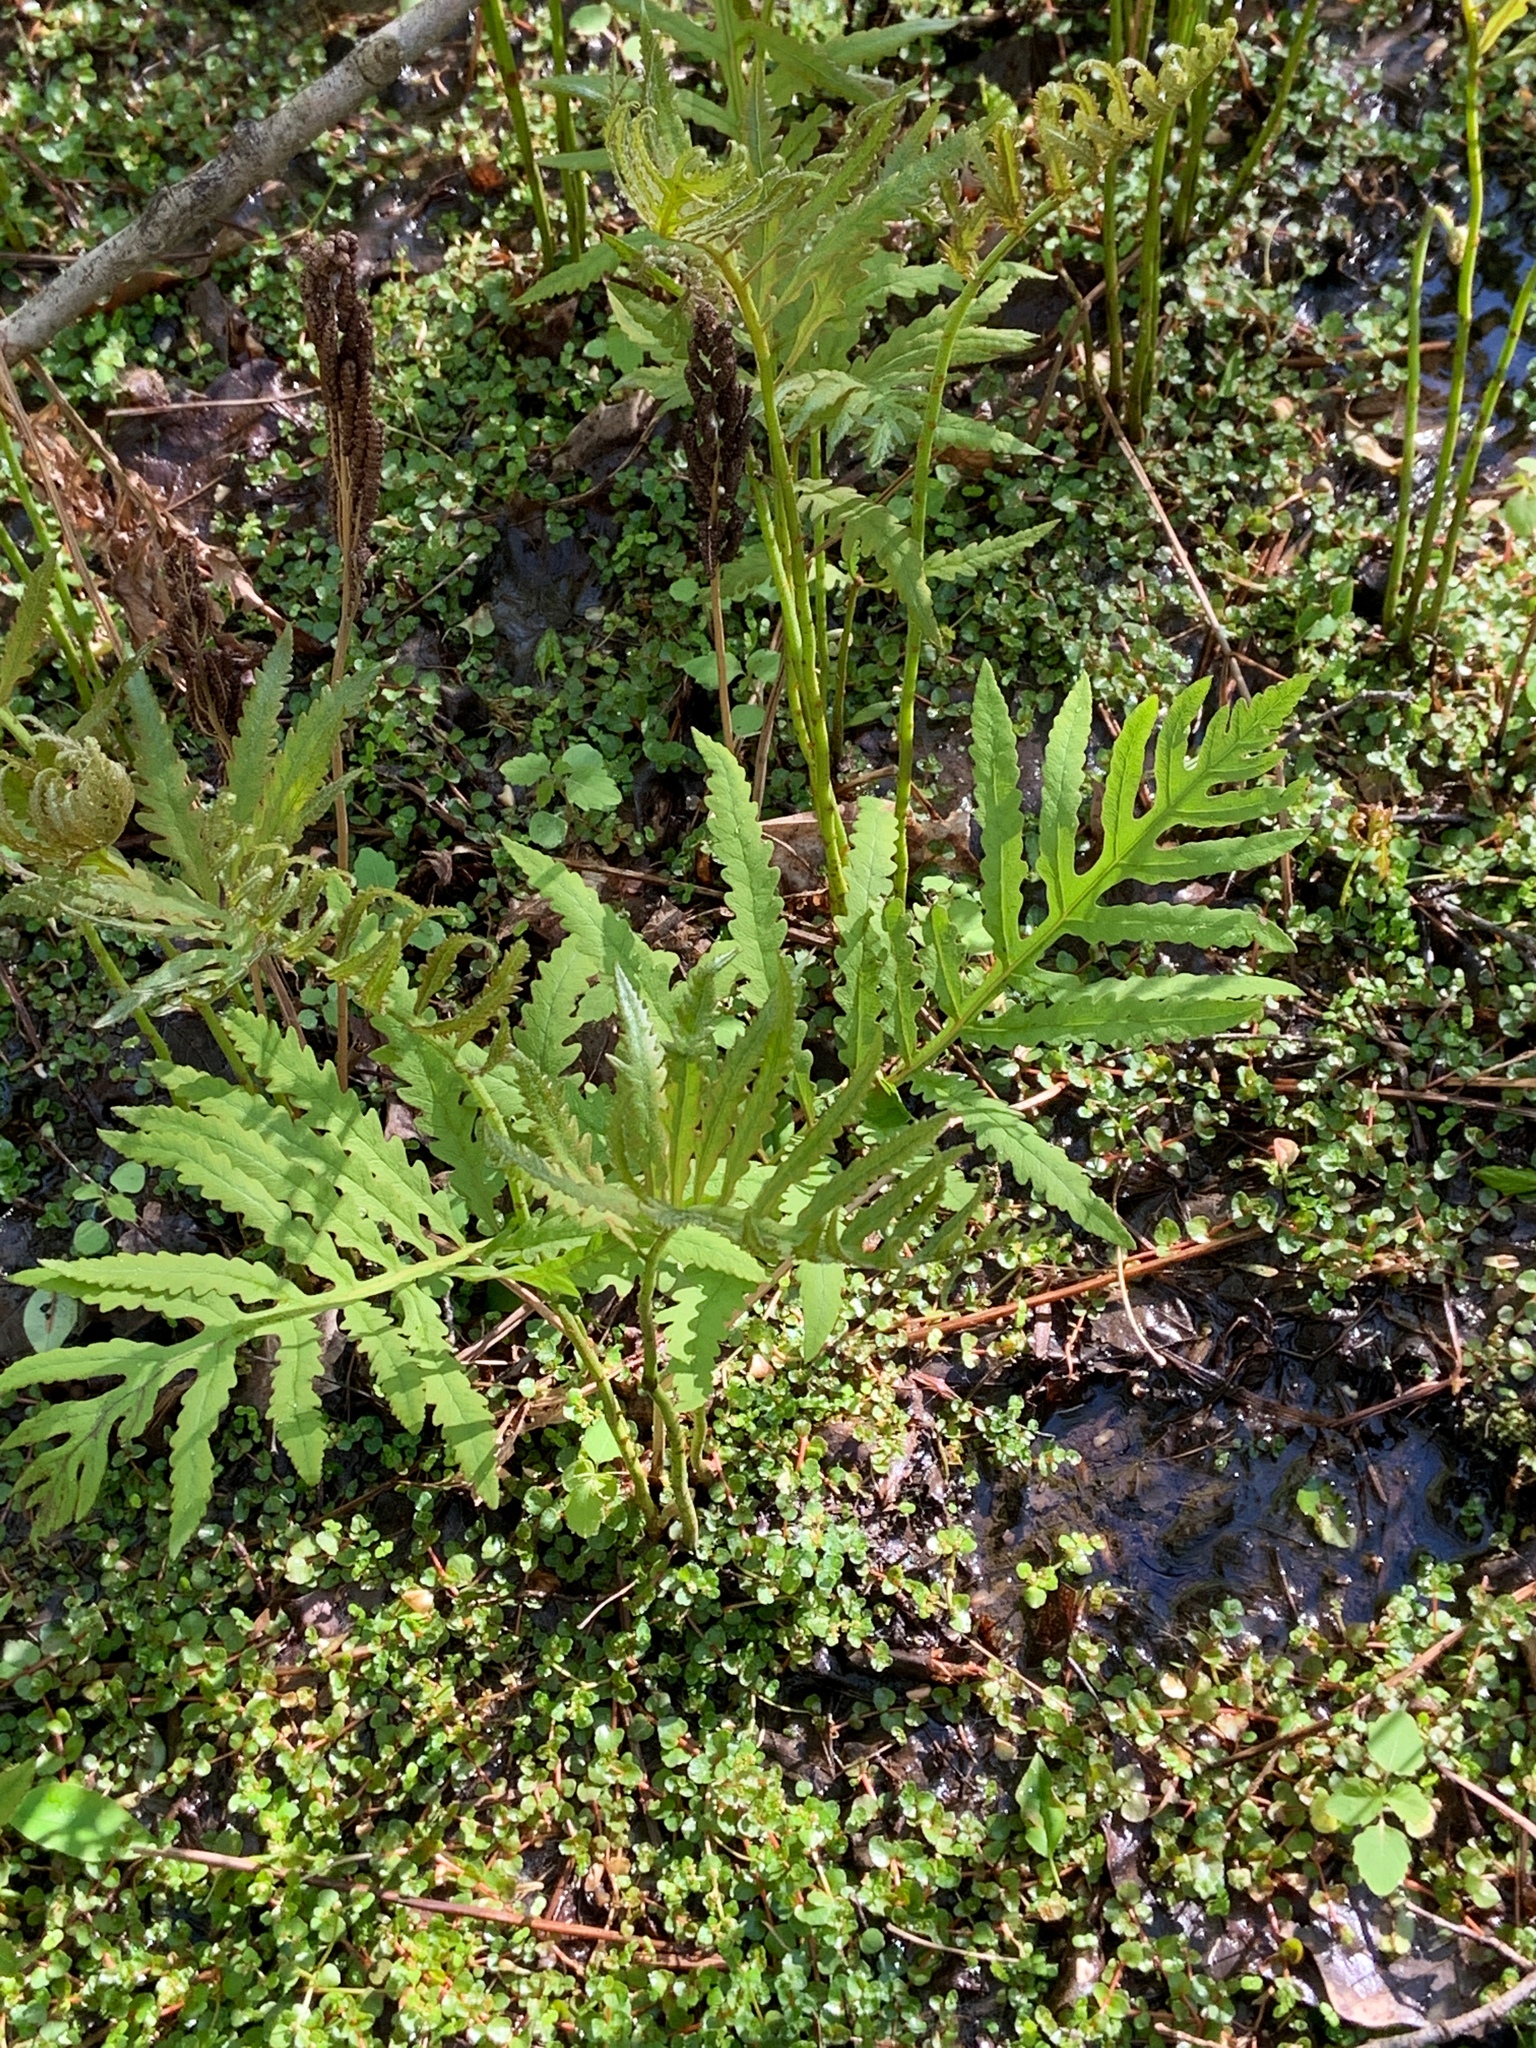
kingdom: Plantae
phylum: Tracheophyta
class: Polypodiopsida
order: Polypodiales
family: Onocleaceae
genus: Onoclea
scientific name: Onoclea sensibilis
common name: Sensitive fern
